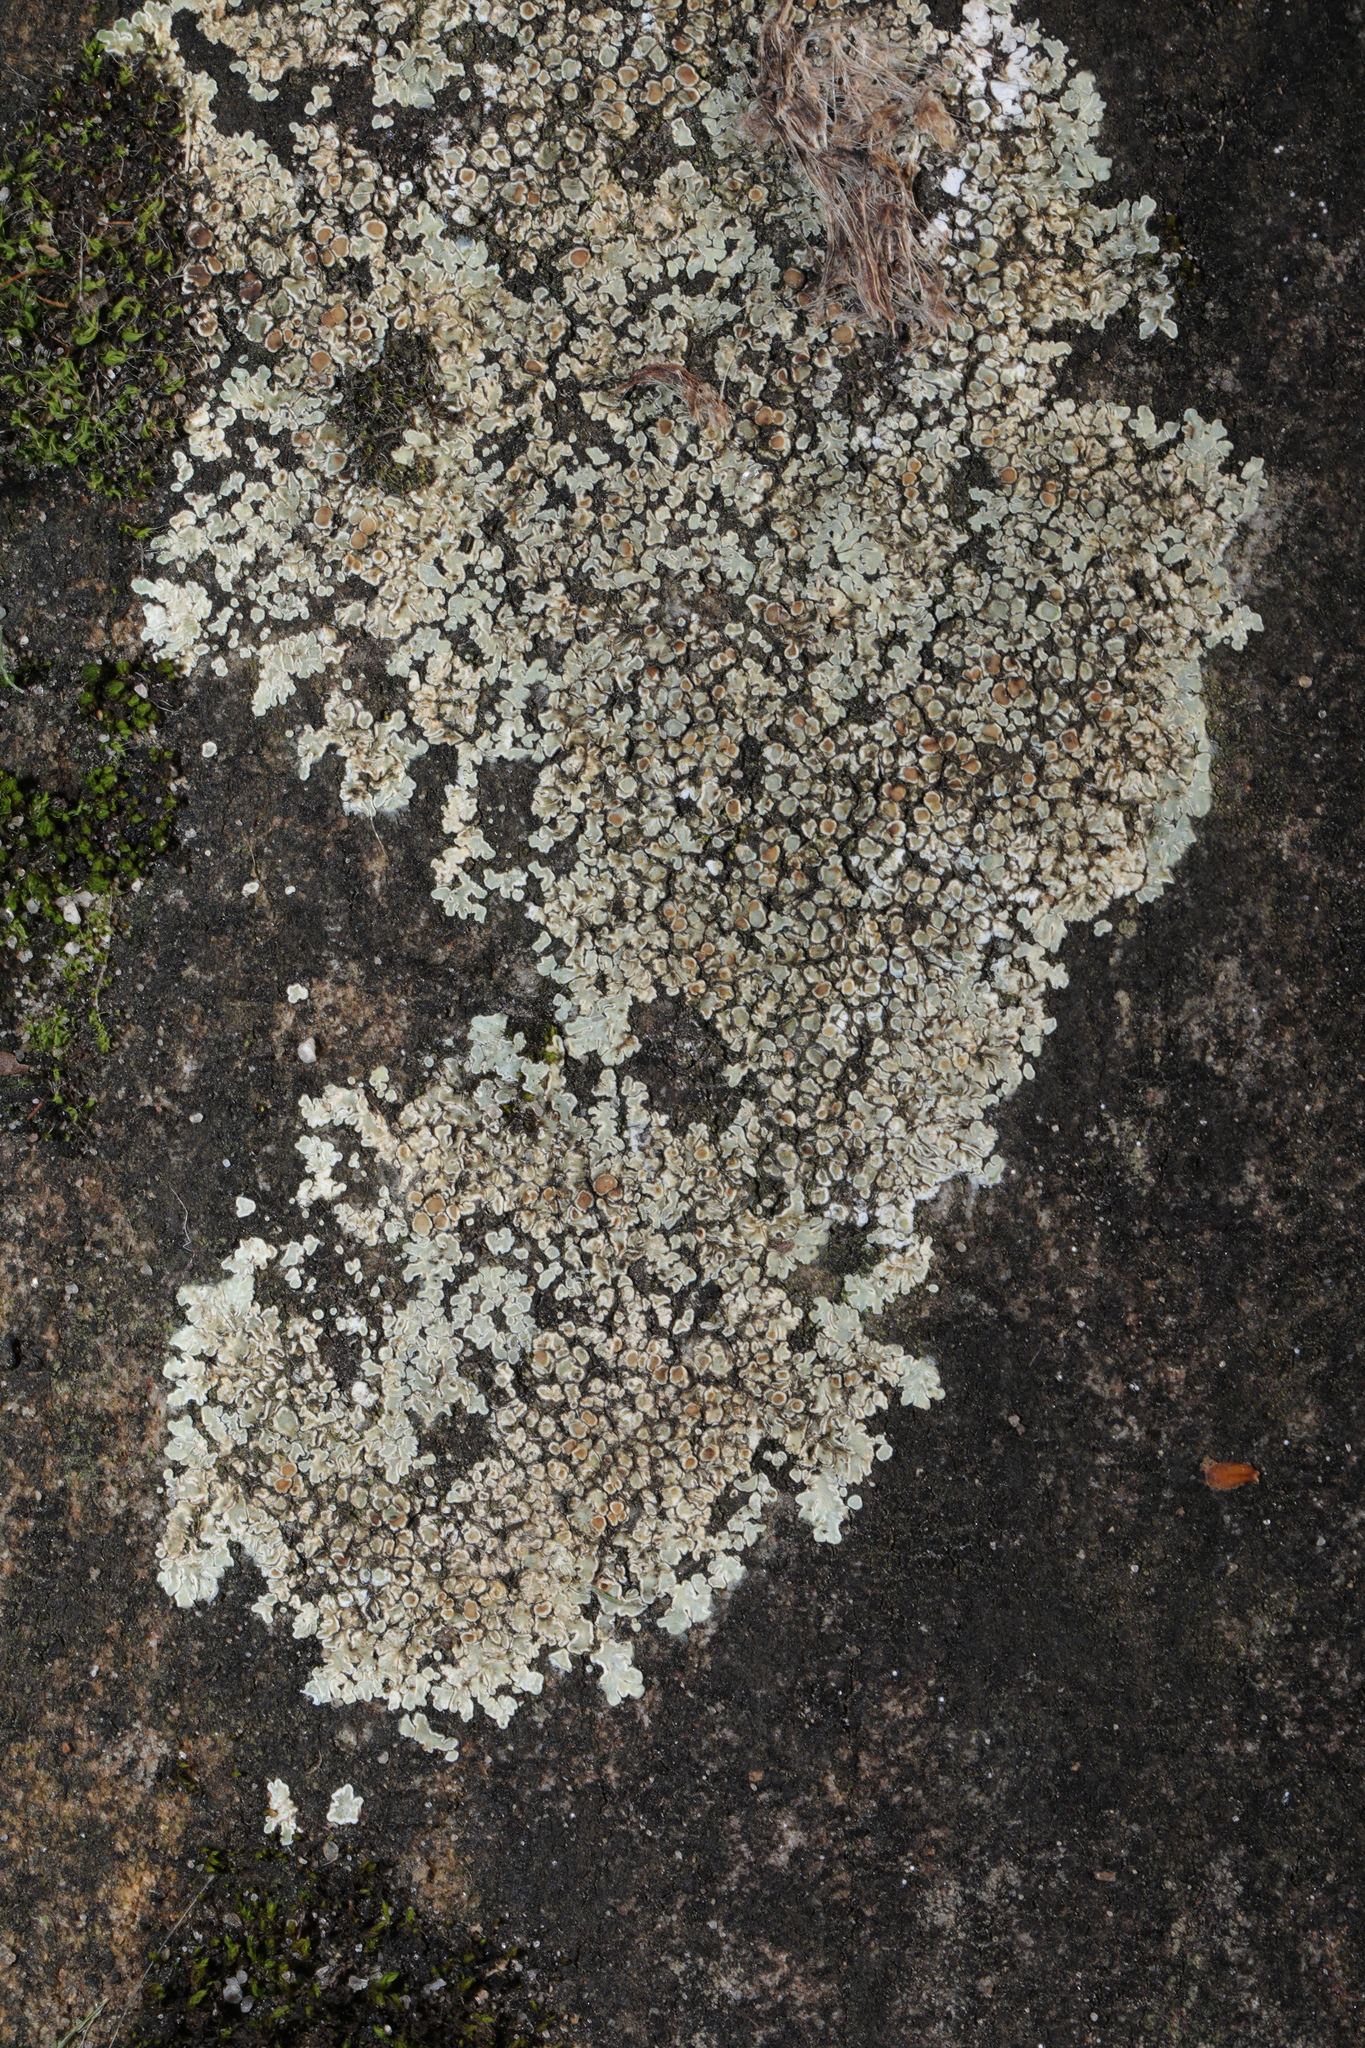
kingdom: Fungi
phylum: Ascomycota
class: Lecanoromycetes
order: Lecanorales
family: Lecanoraceae
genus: Protoparmeliopsis
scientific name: Protoparmeliopsis muralis
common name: Stonewall rim lichen
